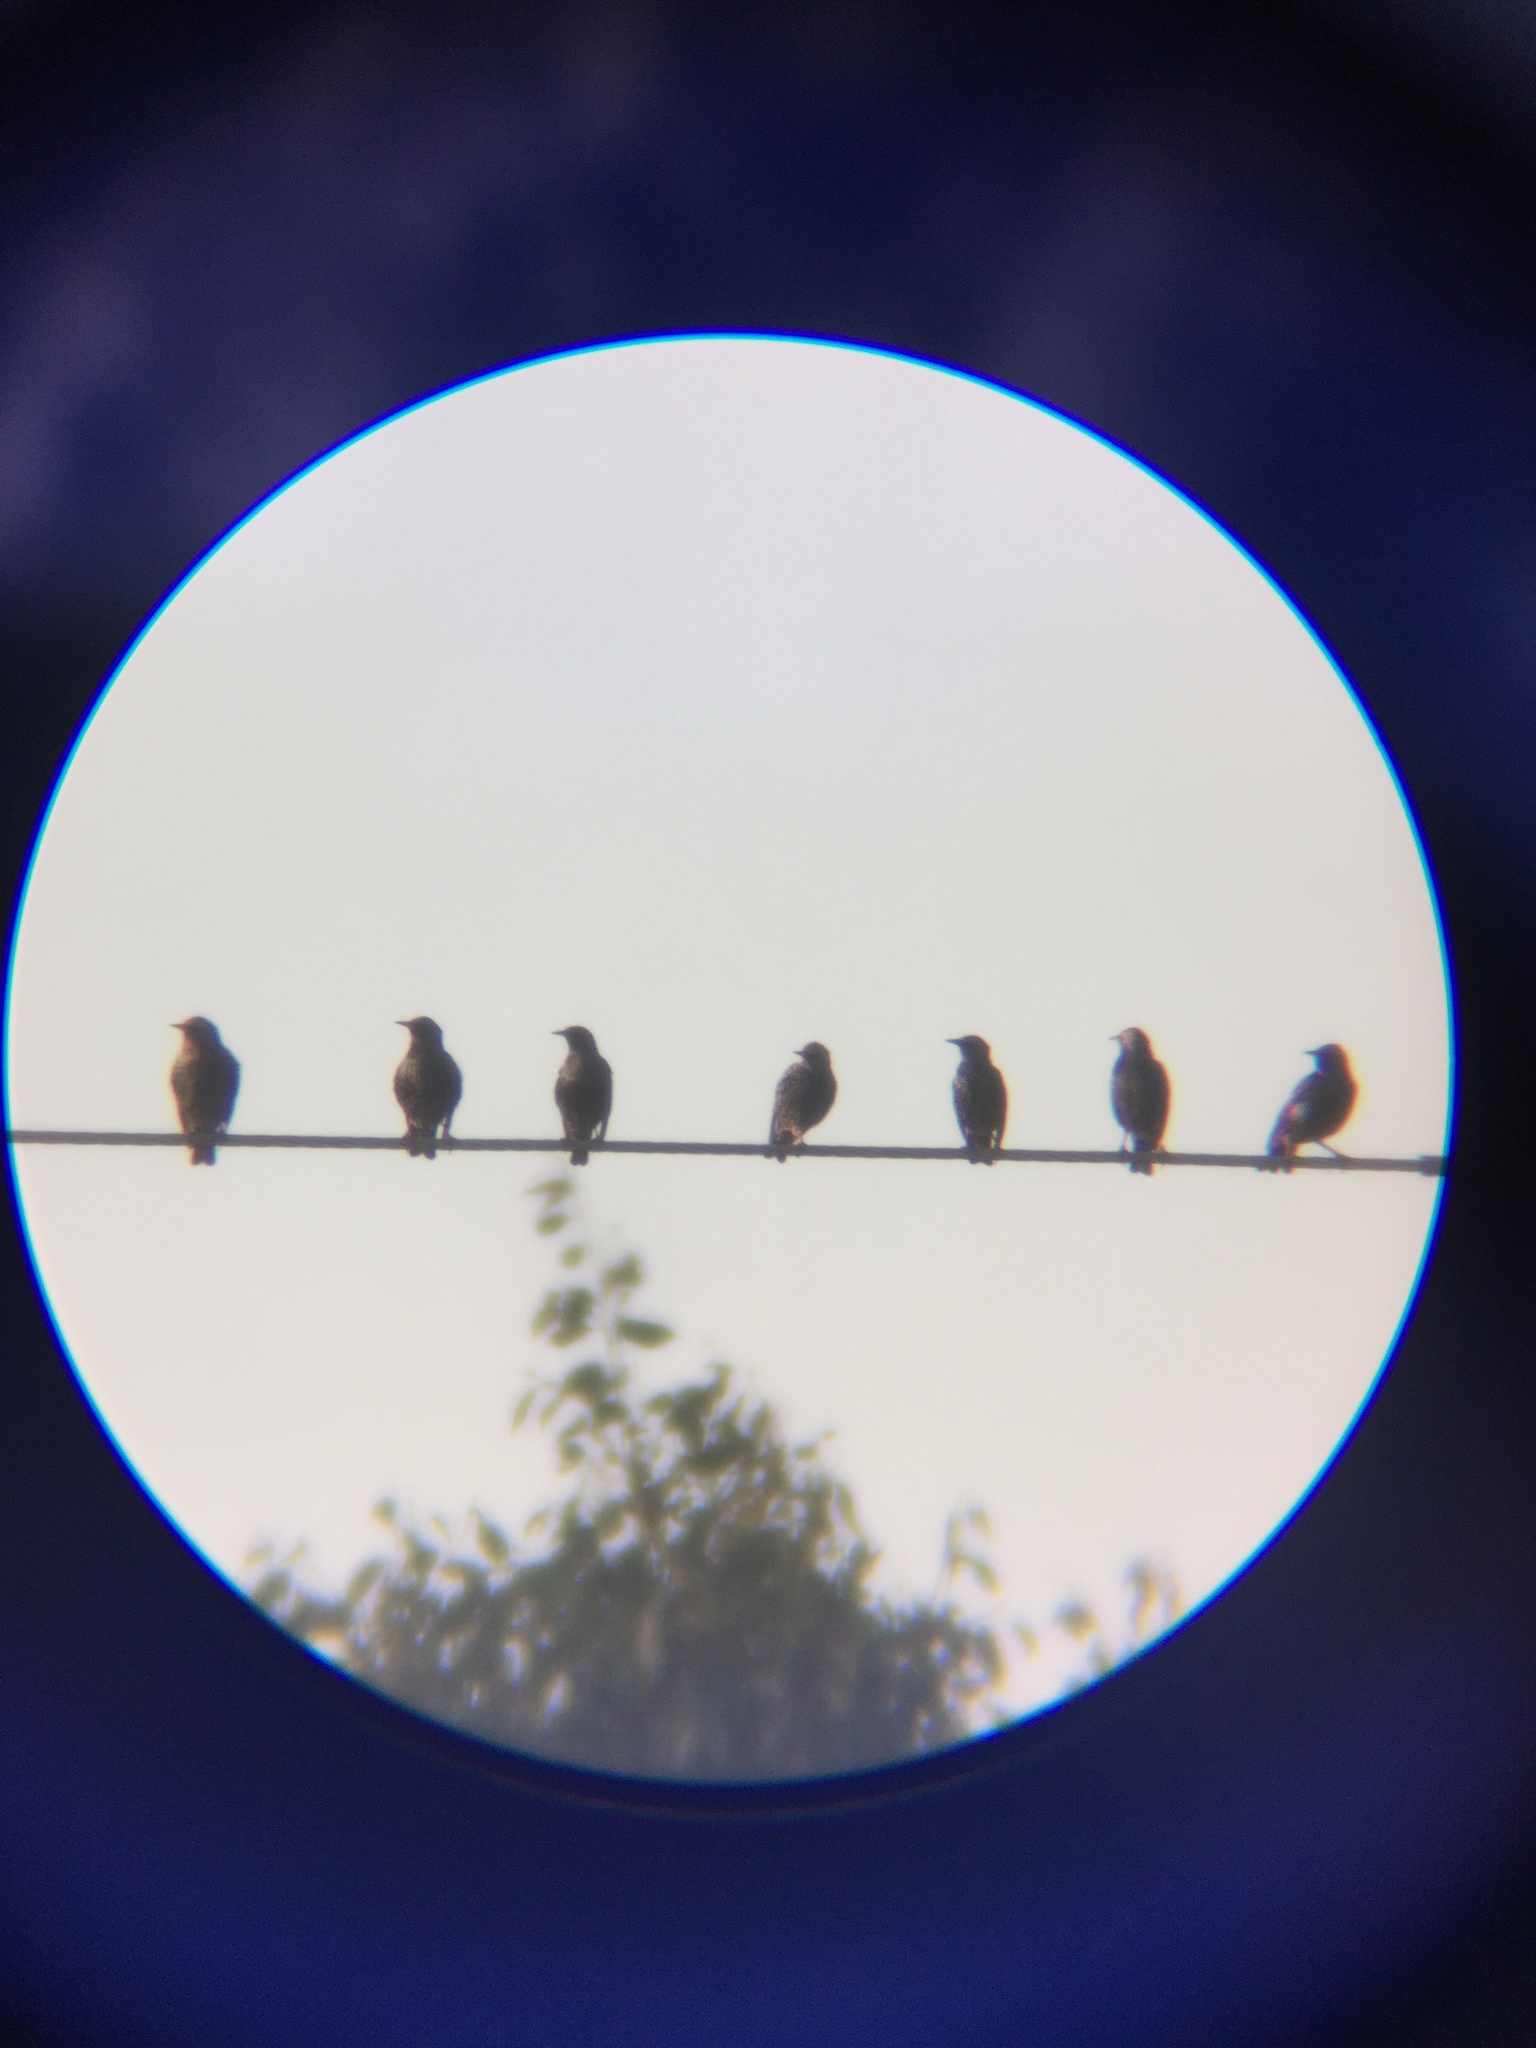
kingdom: Animalia
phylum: Chordata
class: Aves
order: Passeriformes
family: Sturnidae
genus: Sturnus
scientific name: Sturnus vulgaris
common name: Common starling
